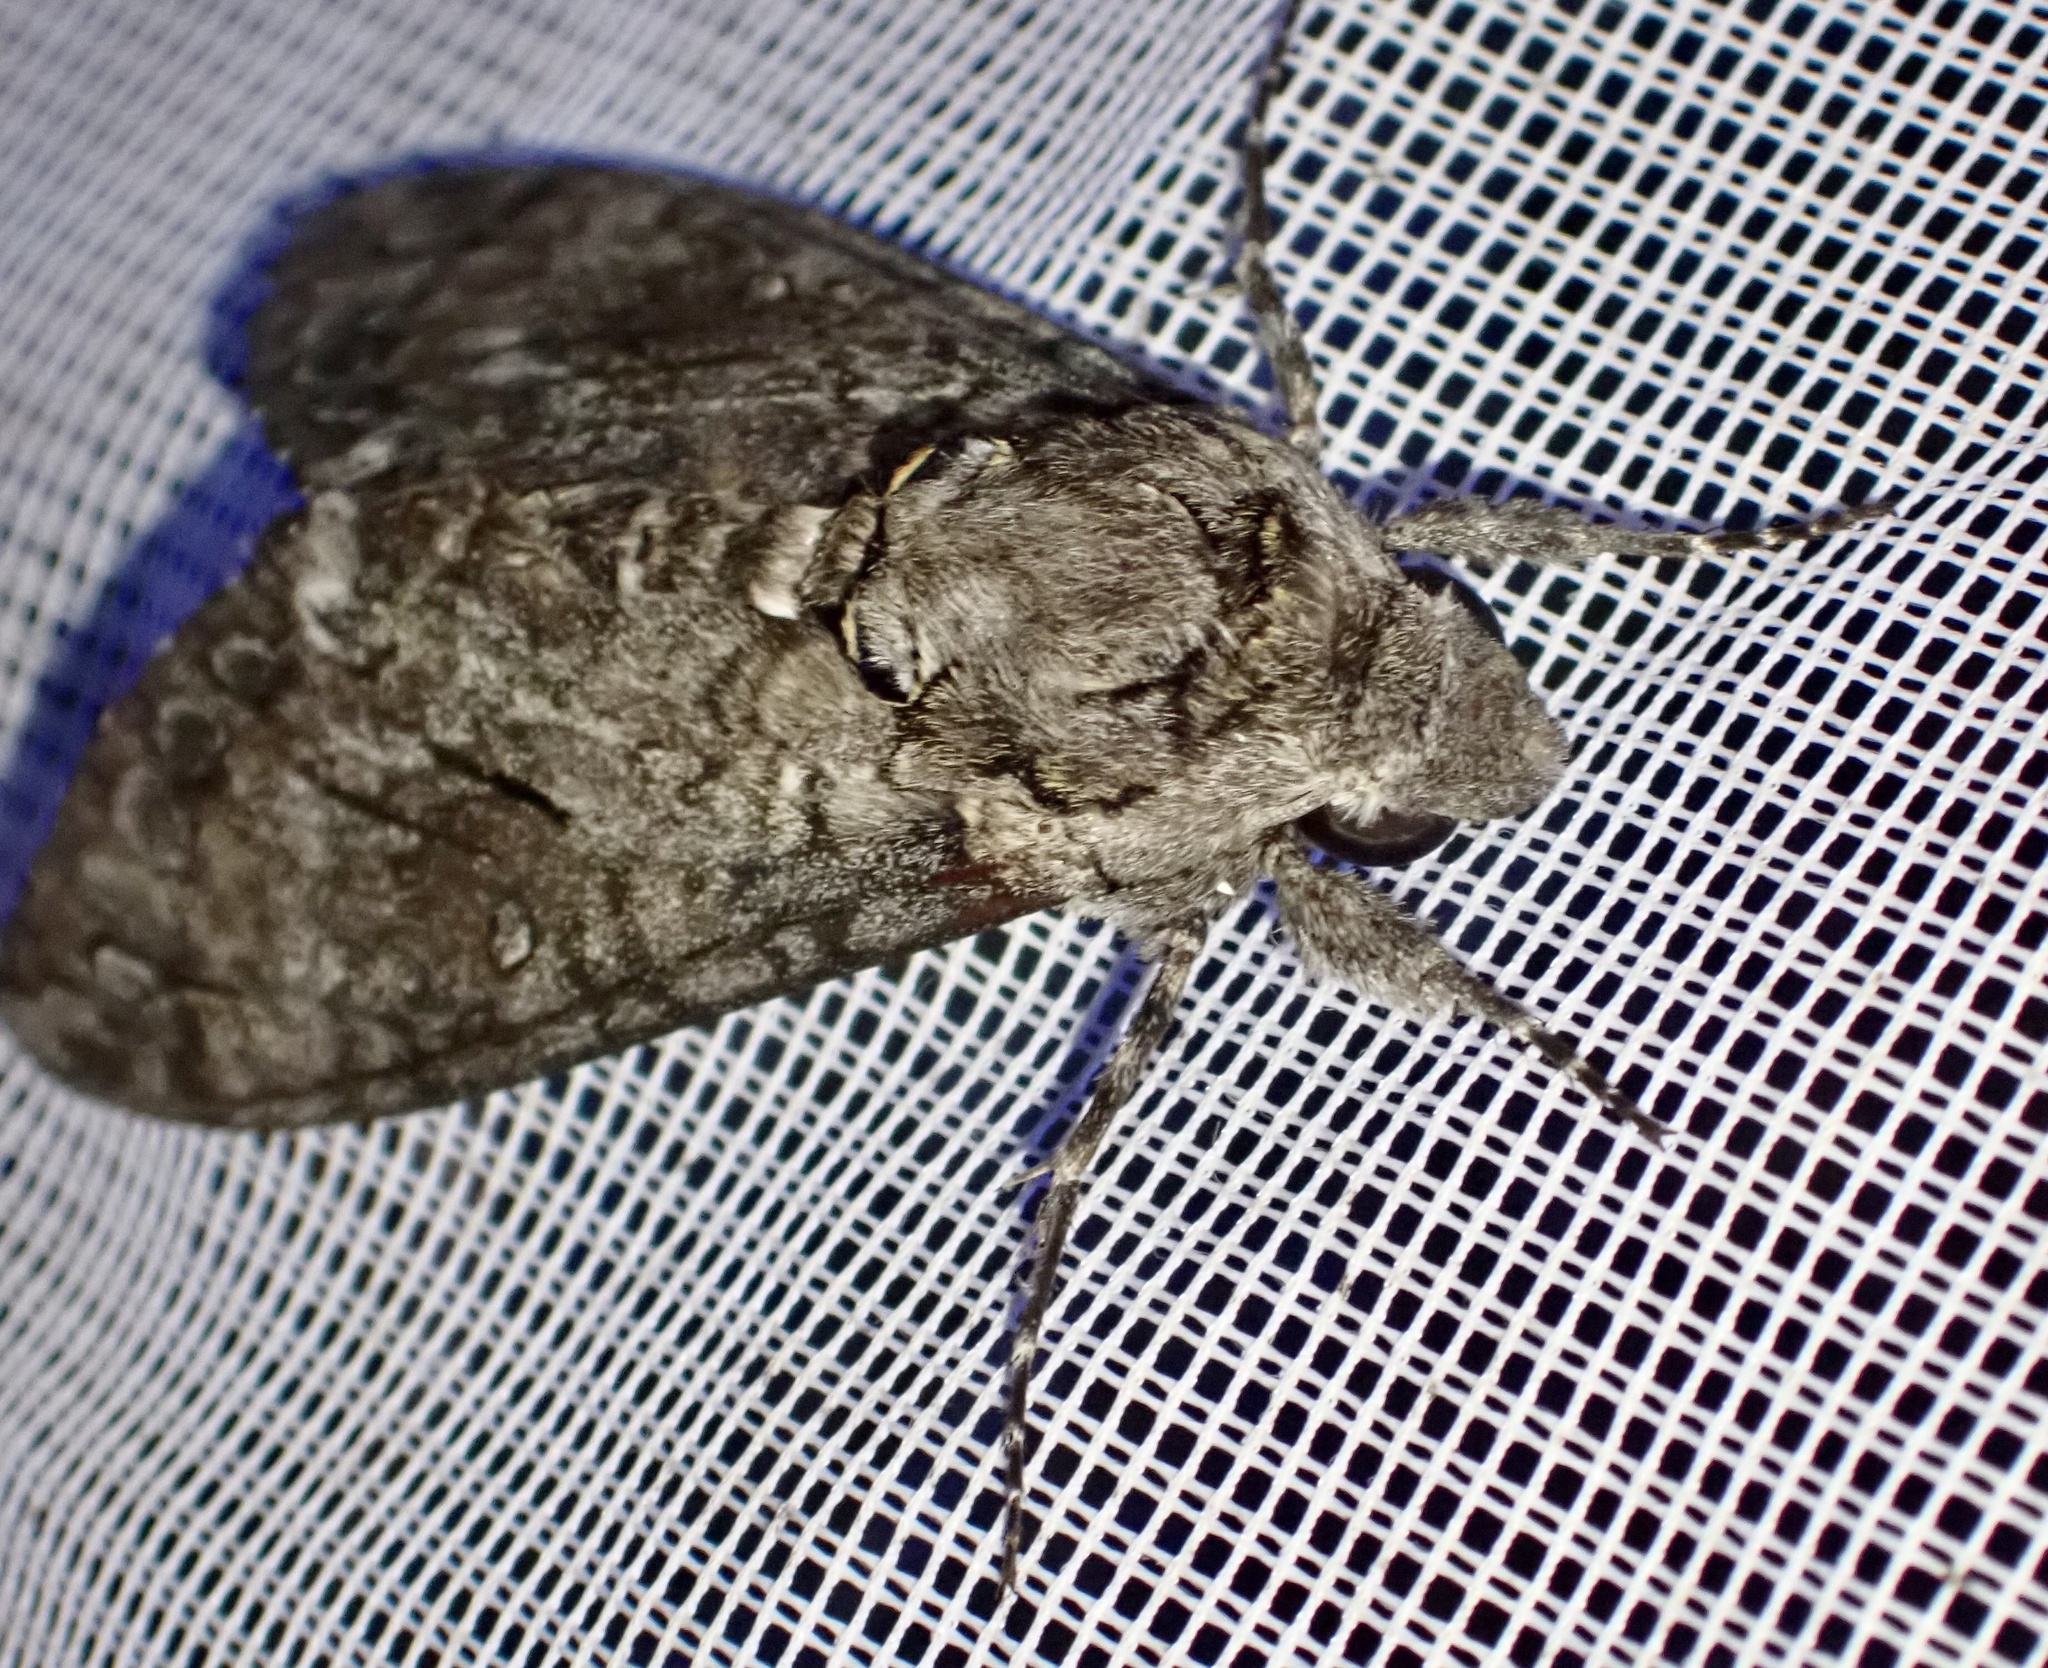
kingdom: Animalia
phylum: Arthropoda
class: Insecta
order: Lepidoptera
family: Sphingidae
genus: Agrius
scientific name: Agrius convolvuli
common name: Convolvulus hawkmoth
